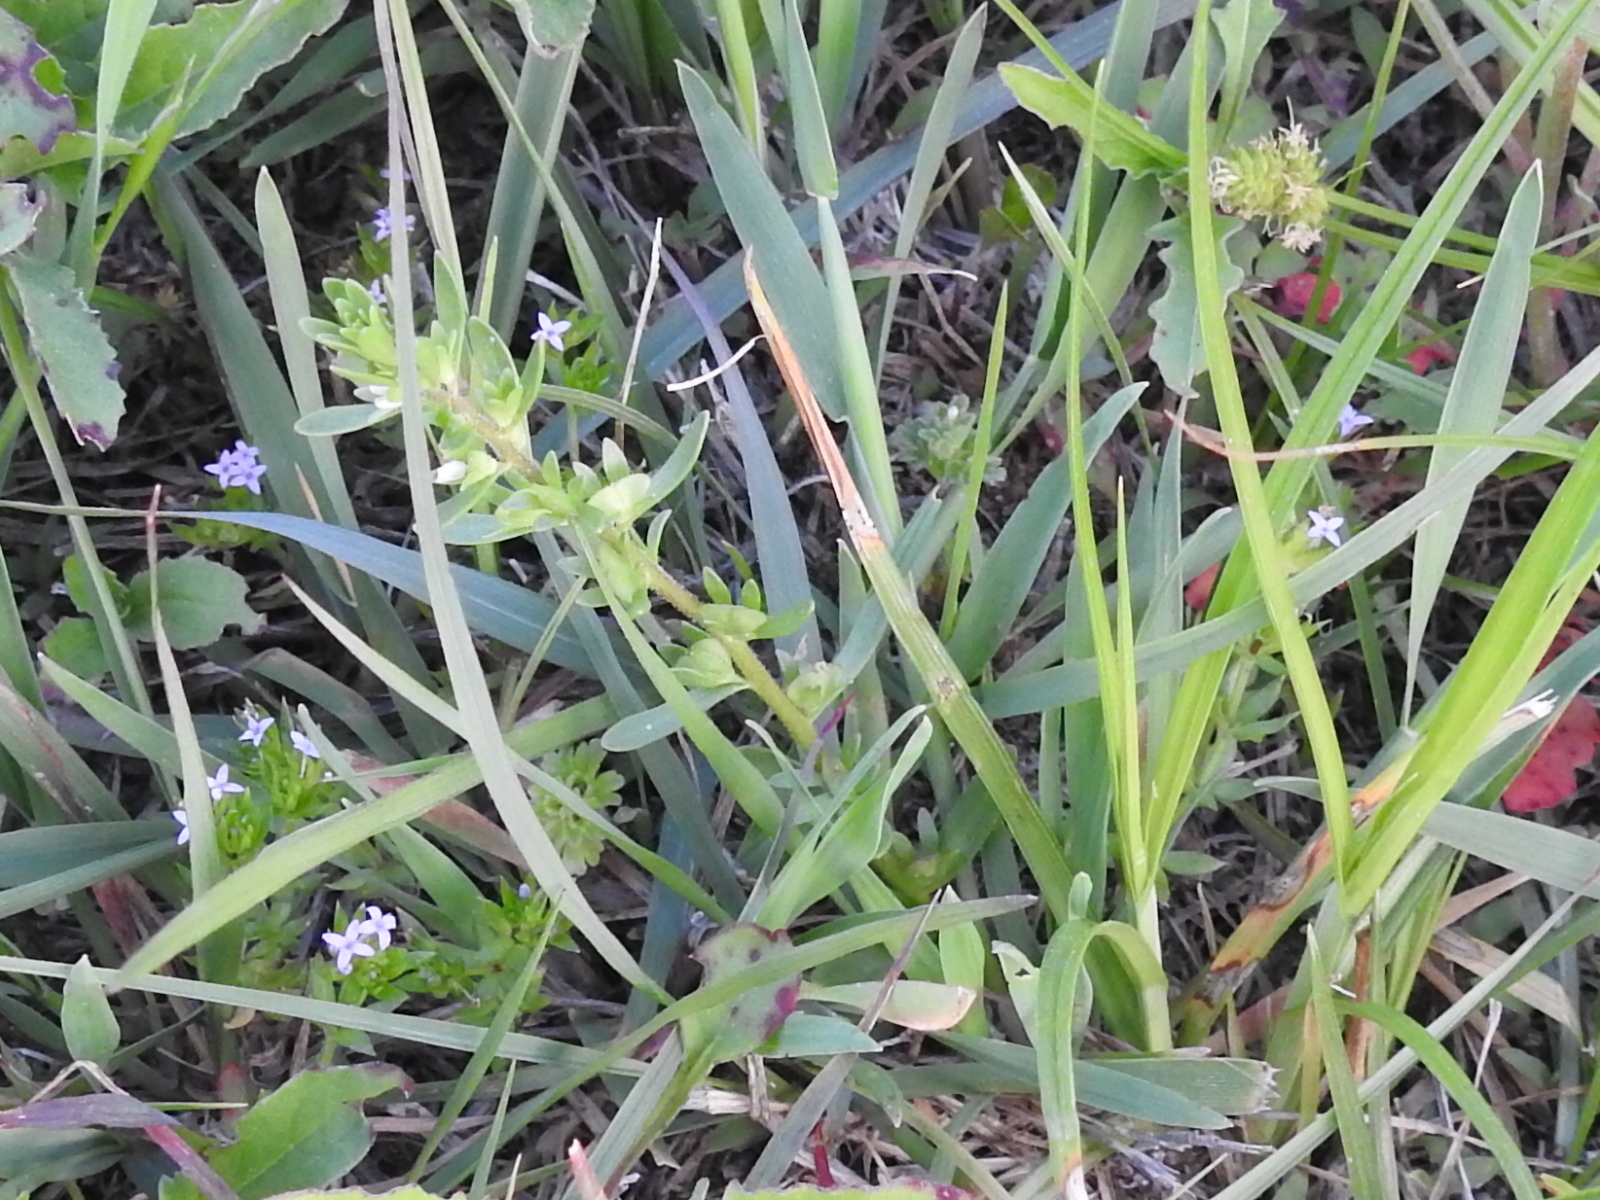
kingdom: Plantae
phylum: Tracheophyta
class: Magnoliopsida
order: Lamiales
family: Plantaginaceae
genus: Veronica
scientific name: Veronica peregrina
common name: Neckweed
